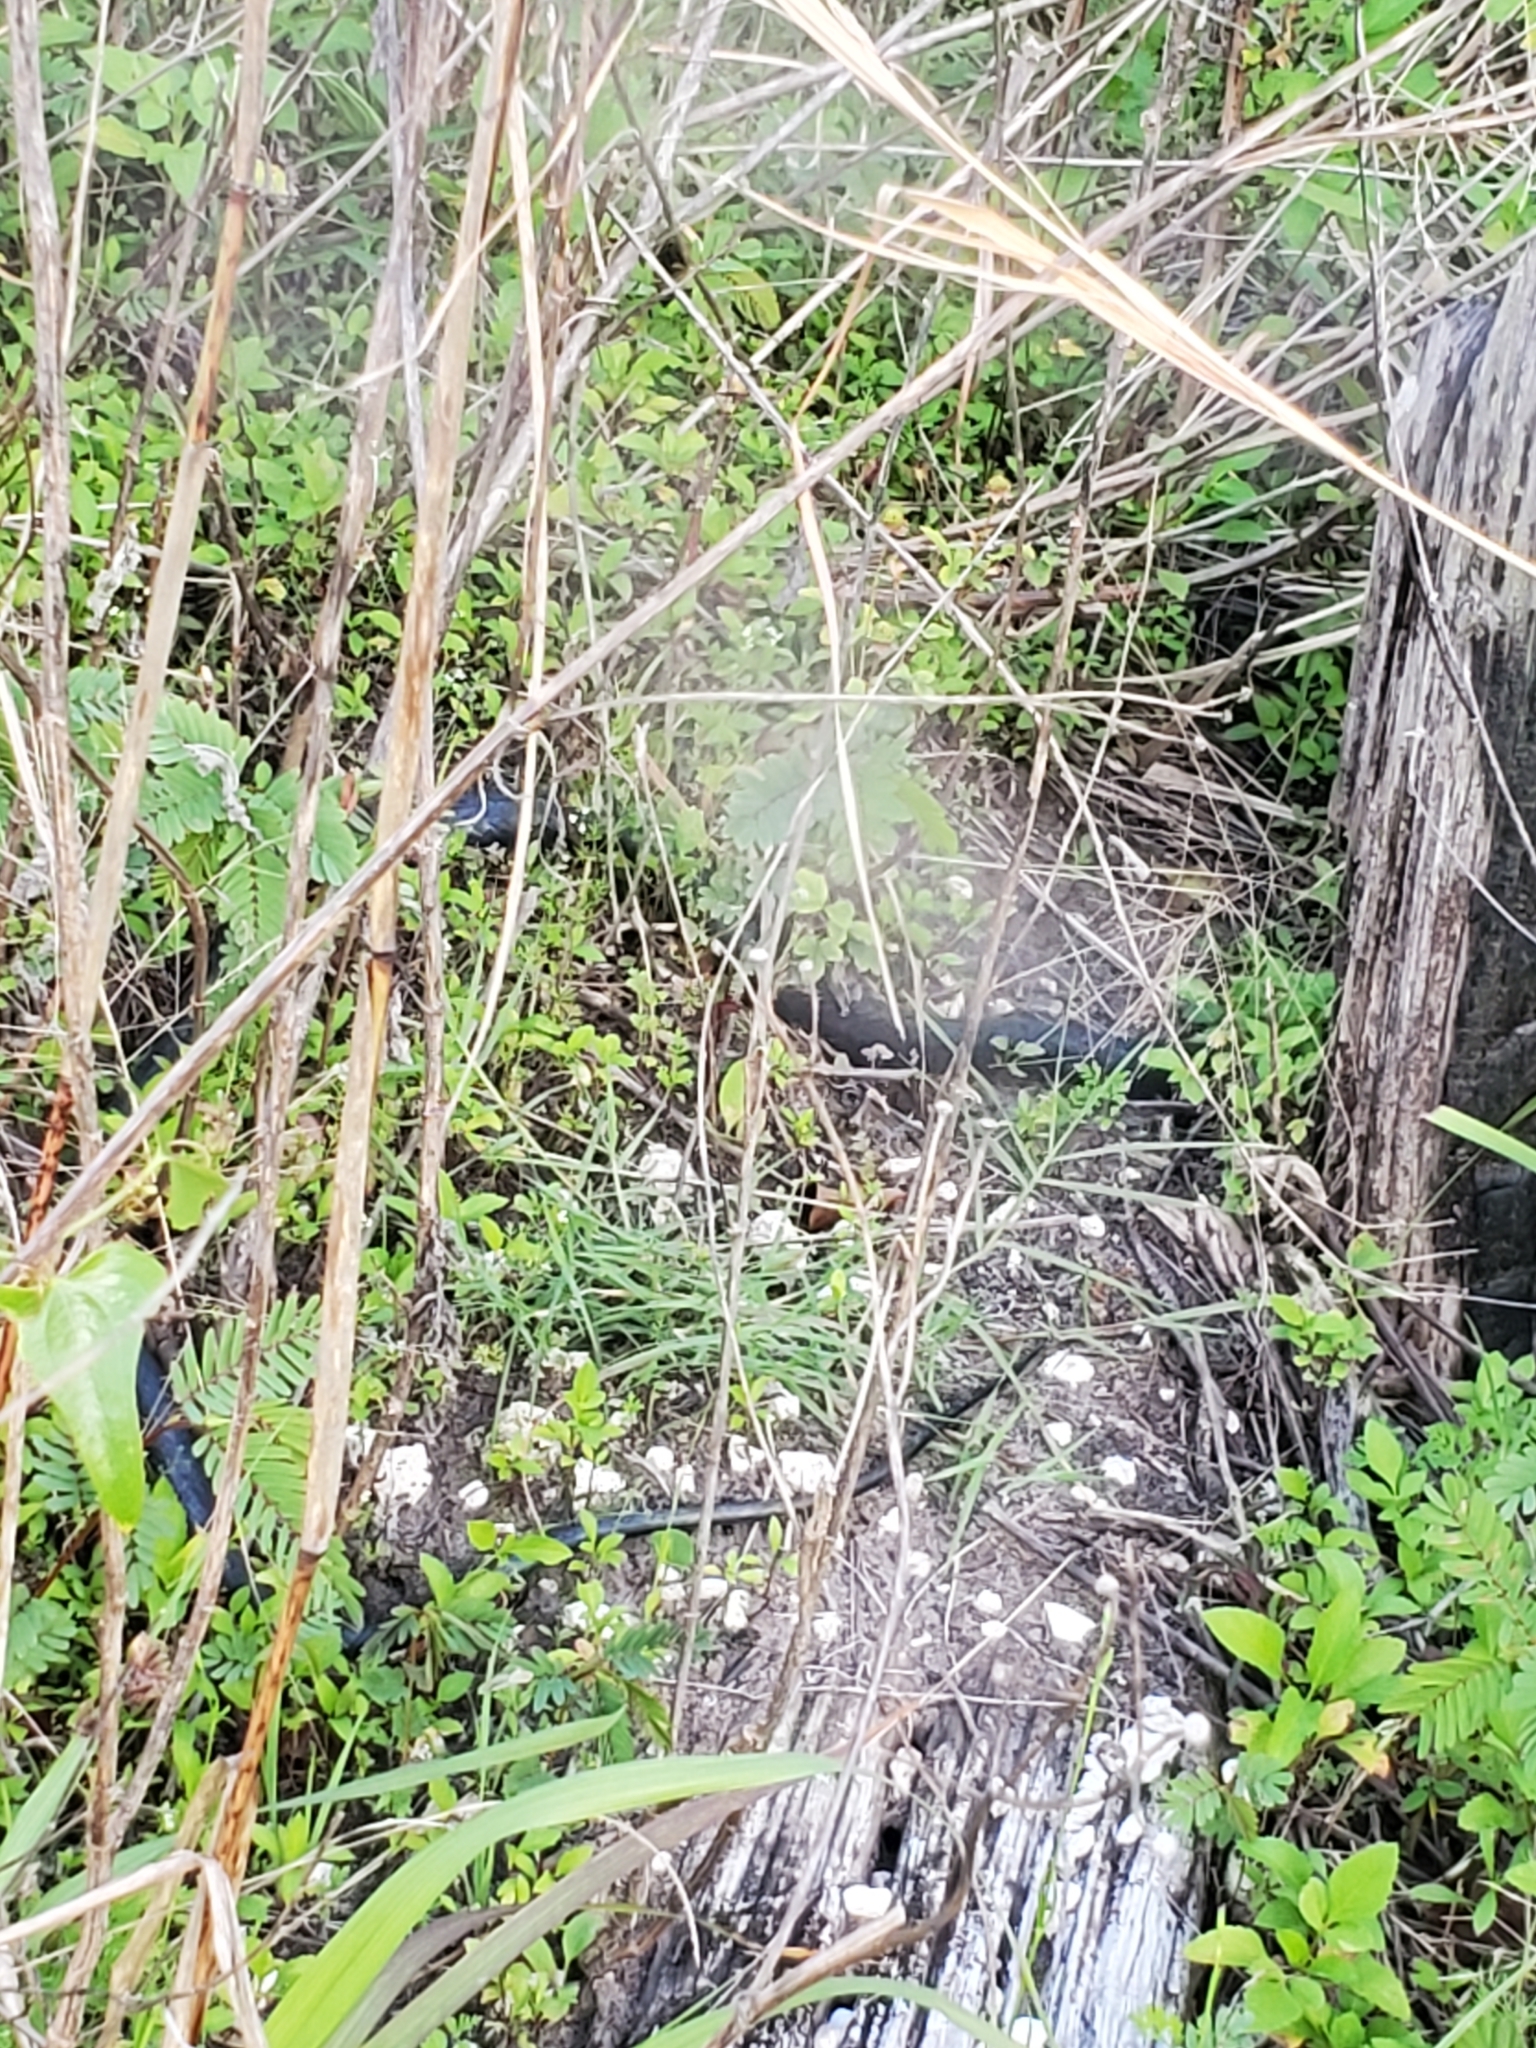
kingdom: Animalia
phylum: Chordata
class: Squamata
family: Colubridae
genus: Coluber
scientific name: Coluber constrictor
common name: Eastern racer
